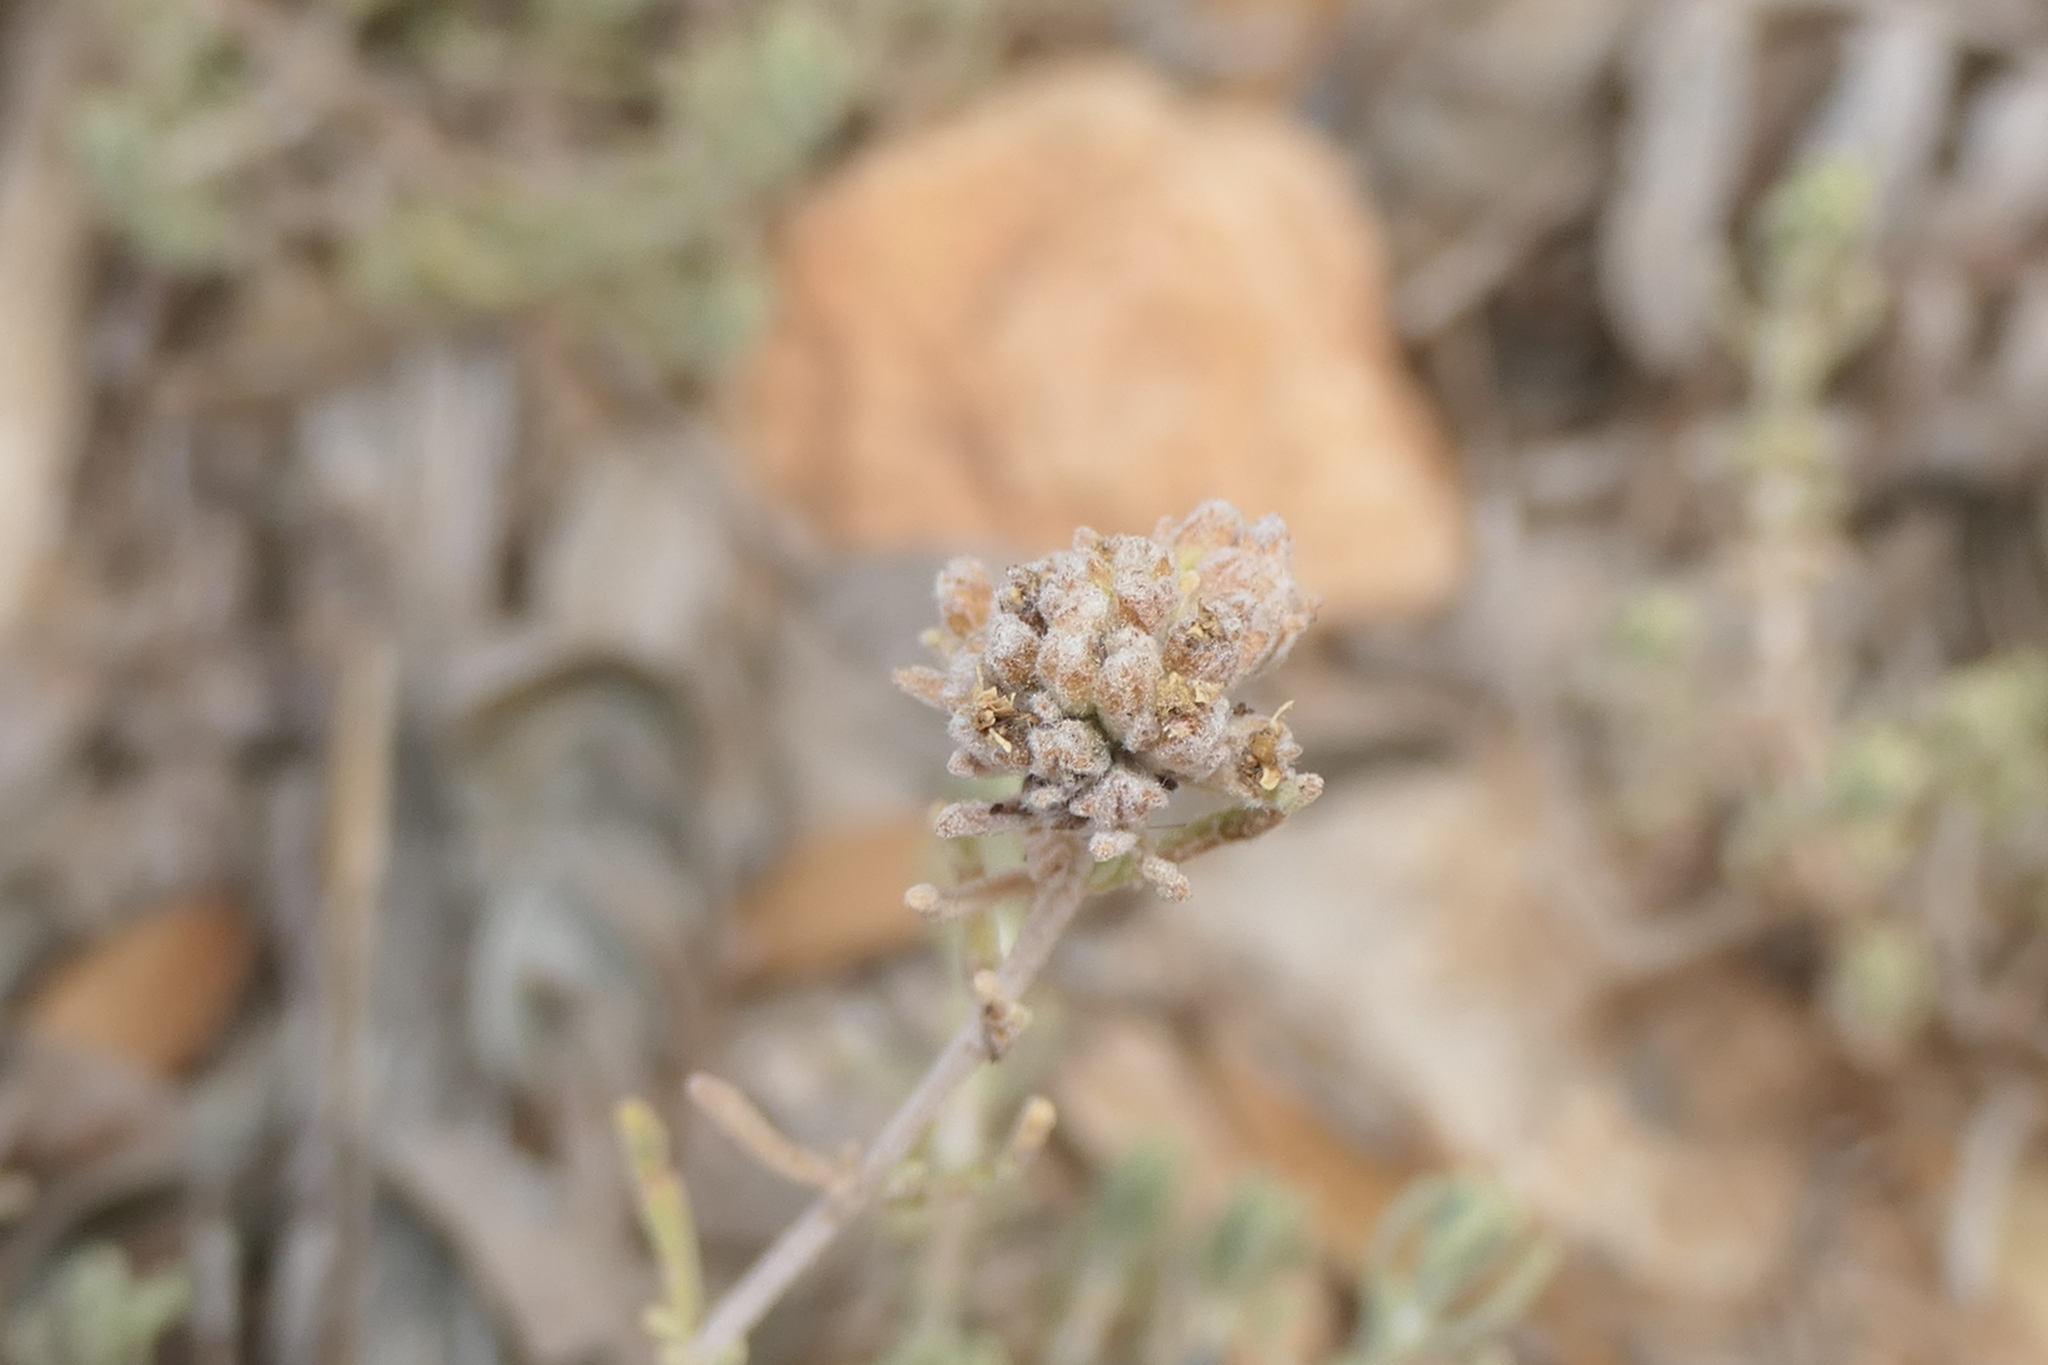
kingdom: Plantae
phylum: Tracheophyta
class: Magnoliopsida
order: Lamiales
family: Lamiaceae
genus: Teucrium
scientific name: Teucrium capitatum
